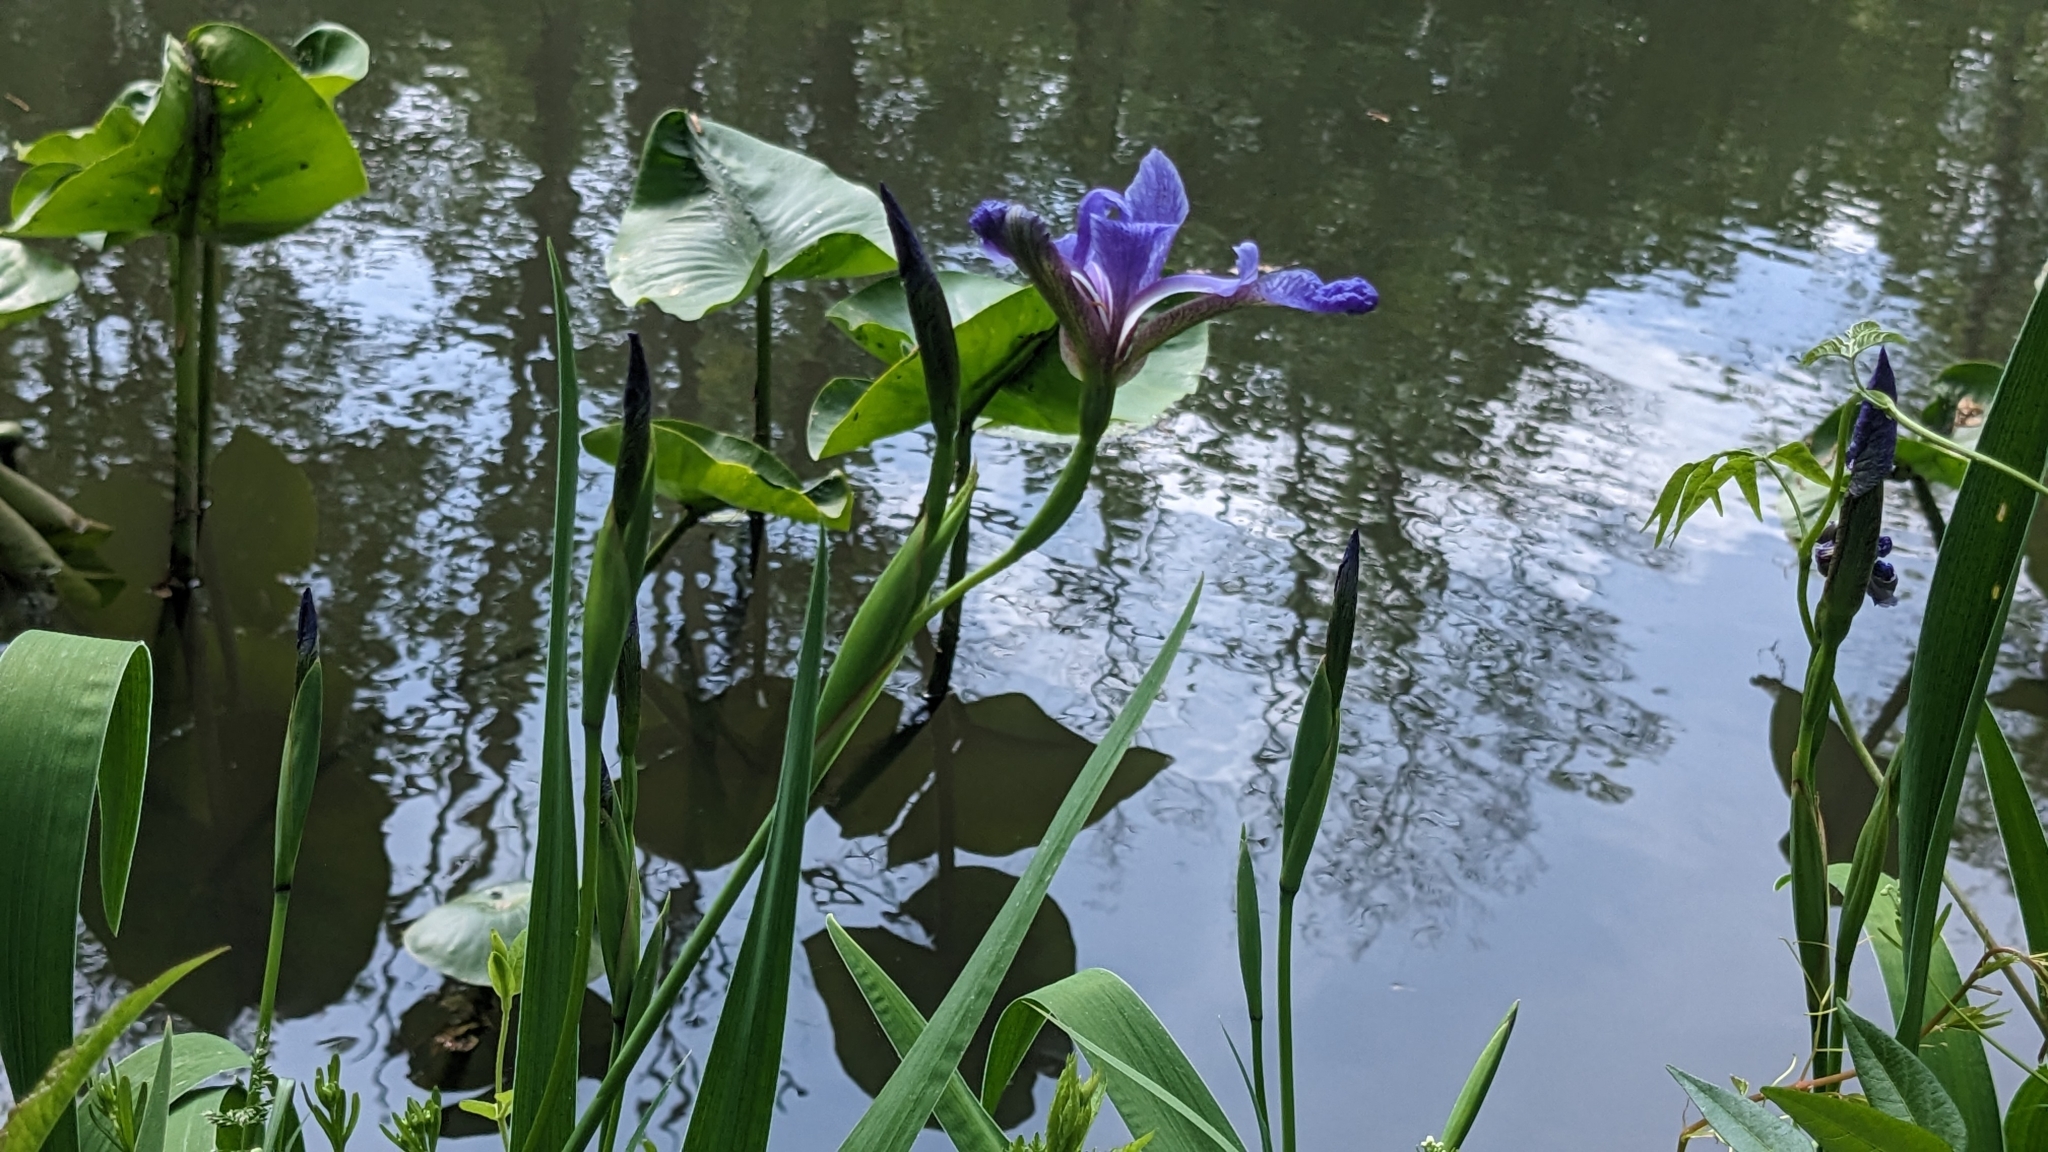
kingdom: Plantae
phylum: Tracheophyta
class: Liliopsida
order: Asparagales
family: Iridaceae
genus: Iris
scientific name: Iris versicolor
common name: Purple iris
